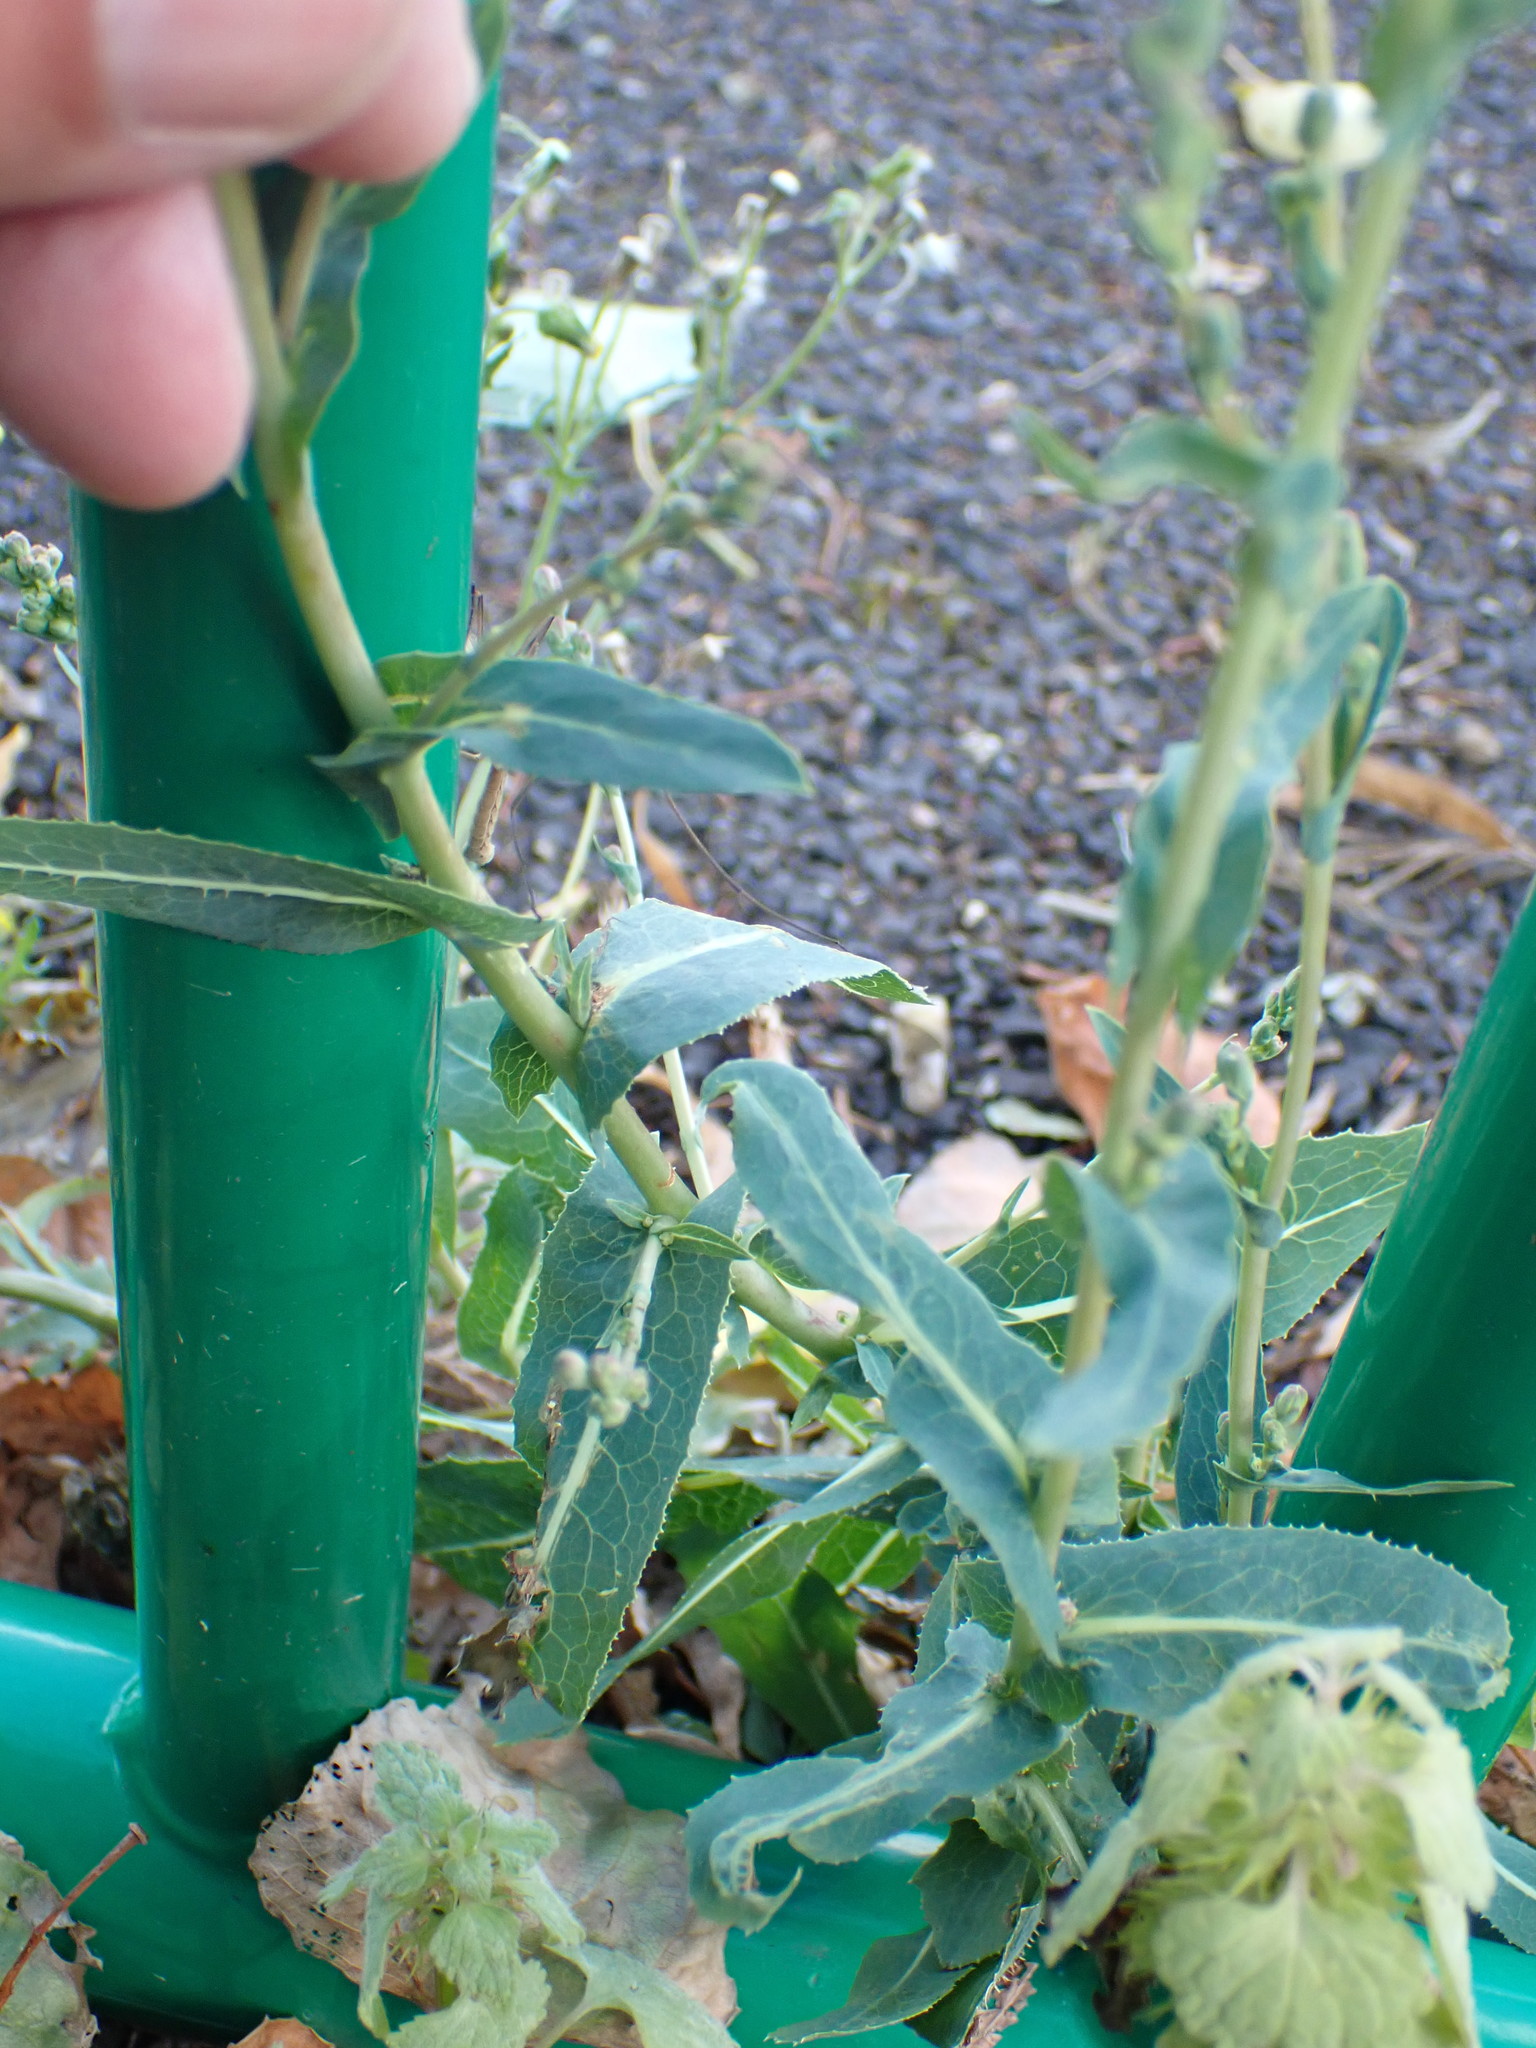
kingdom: Plantae
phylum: Tracheophyta
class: Magnoliopsida
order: Asterales
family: Asteraceae
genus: Lactuca
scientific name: Lactuca serriola
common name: Prickly lettuce
